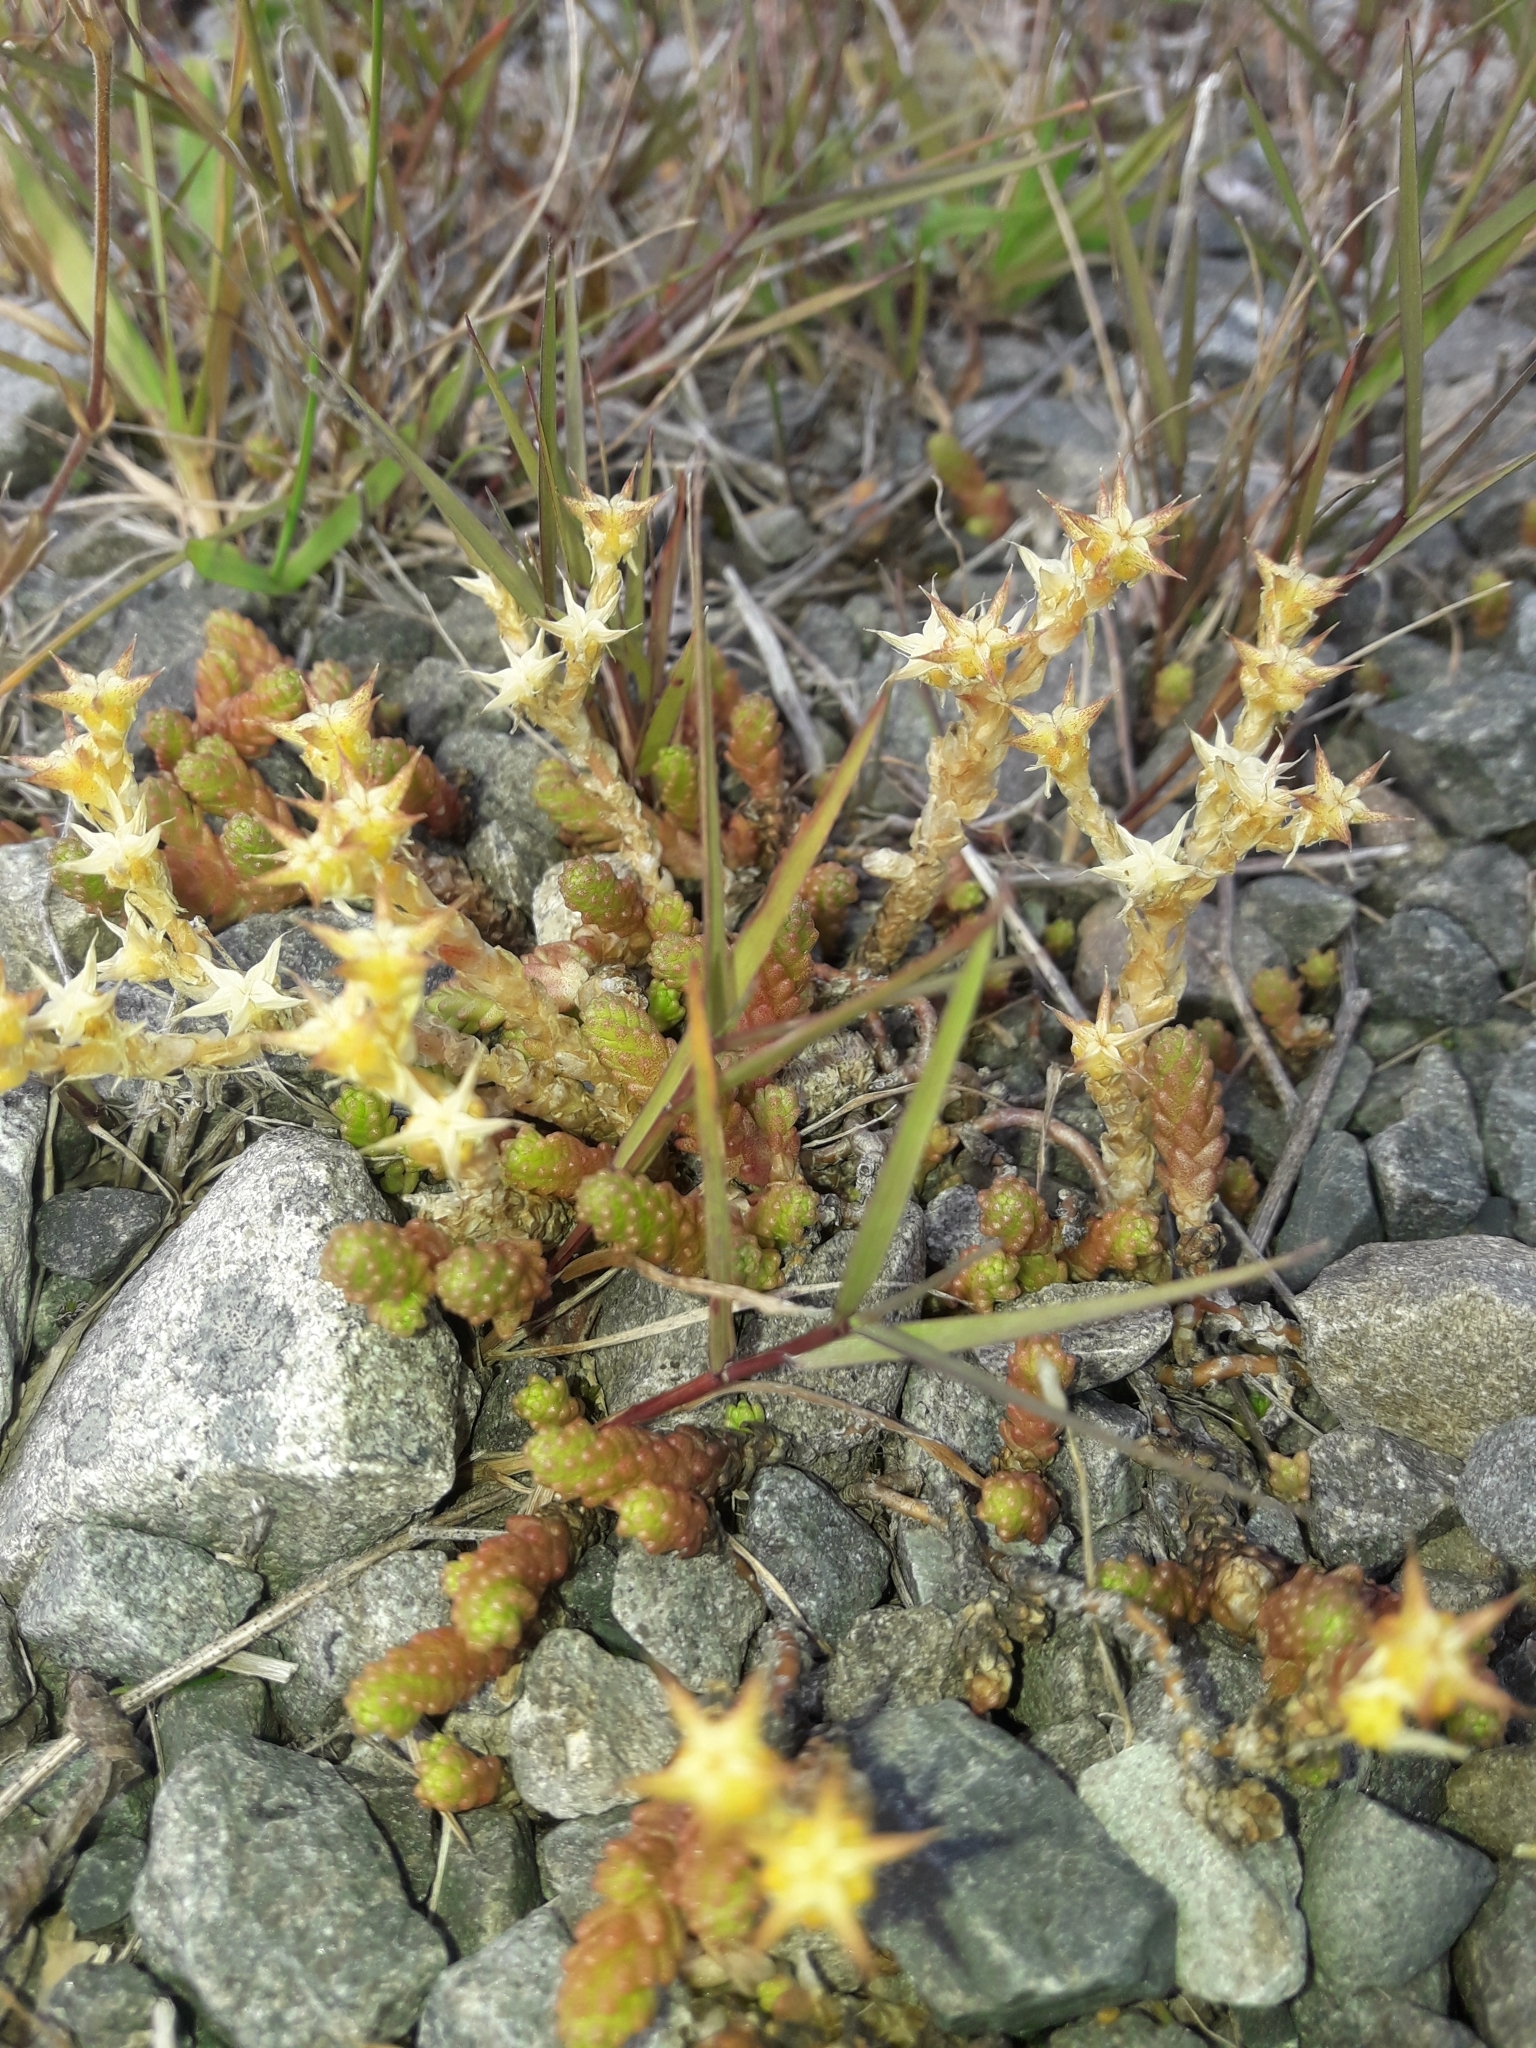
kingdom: Plantae
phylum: Tracheophyta
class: Magnoliopsida
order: Saxifragales
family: Crassulaceae
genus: Sedum
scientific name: Sedum acre
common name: Biting stonecrop
